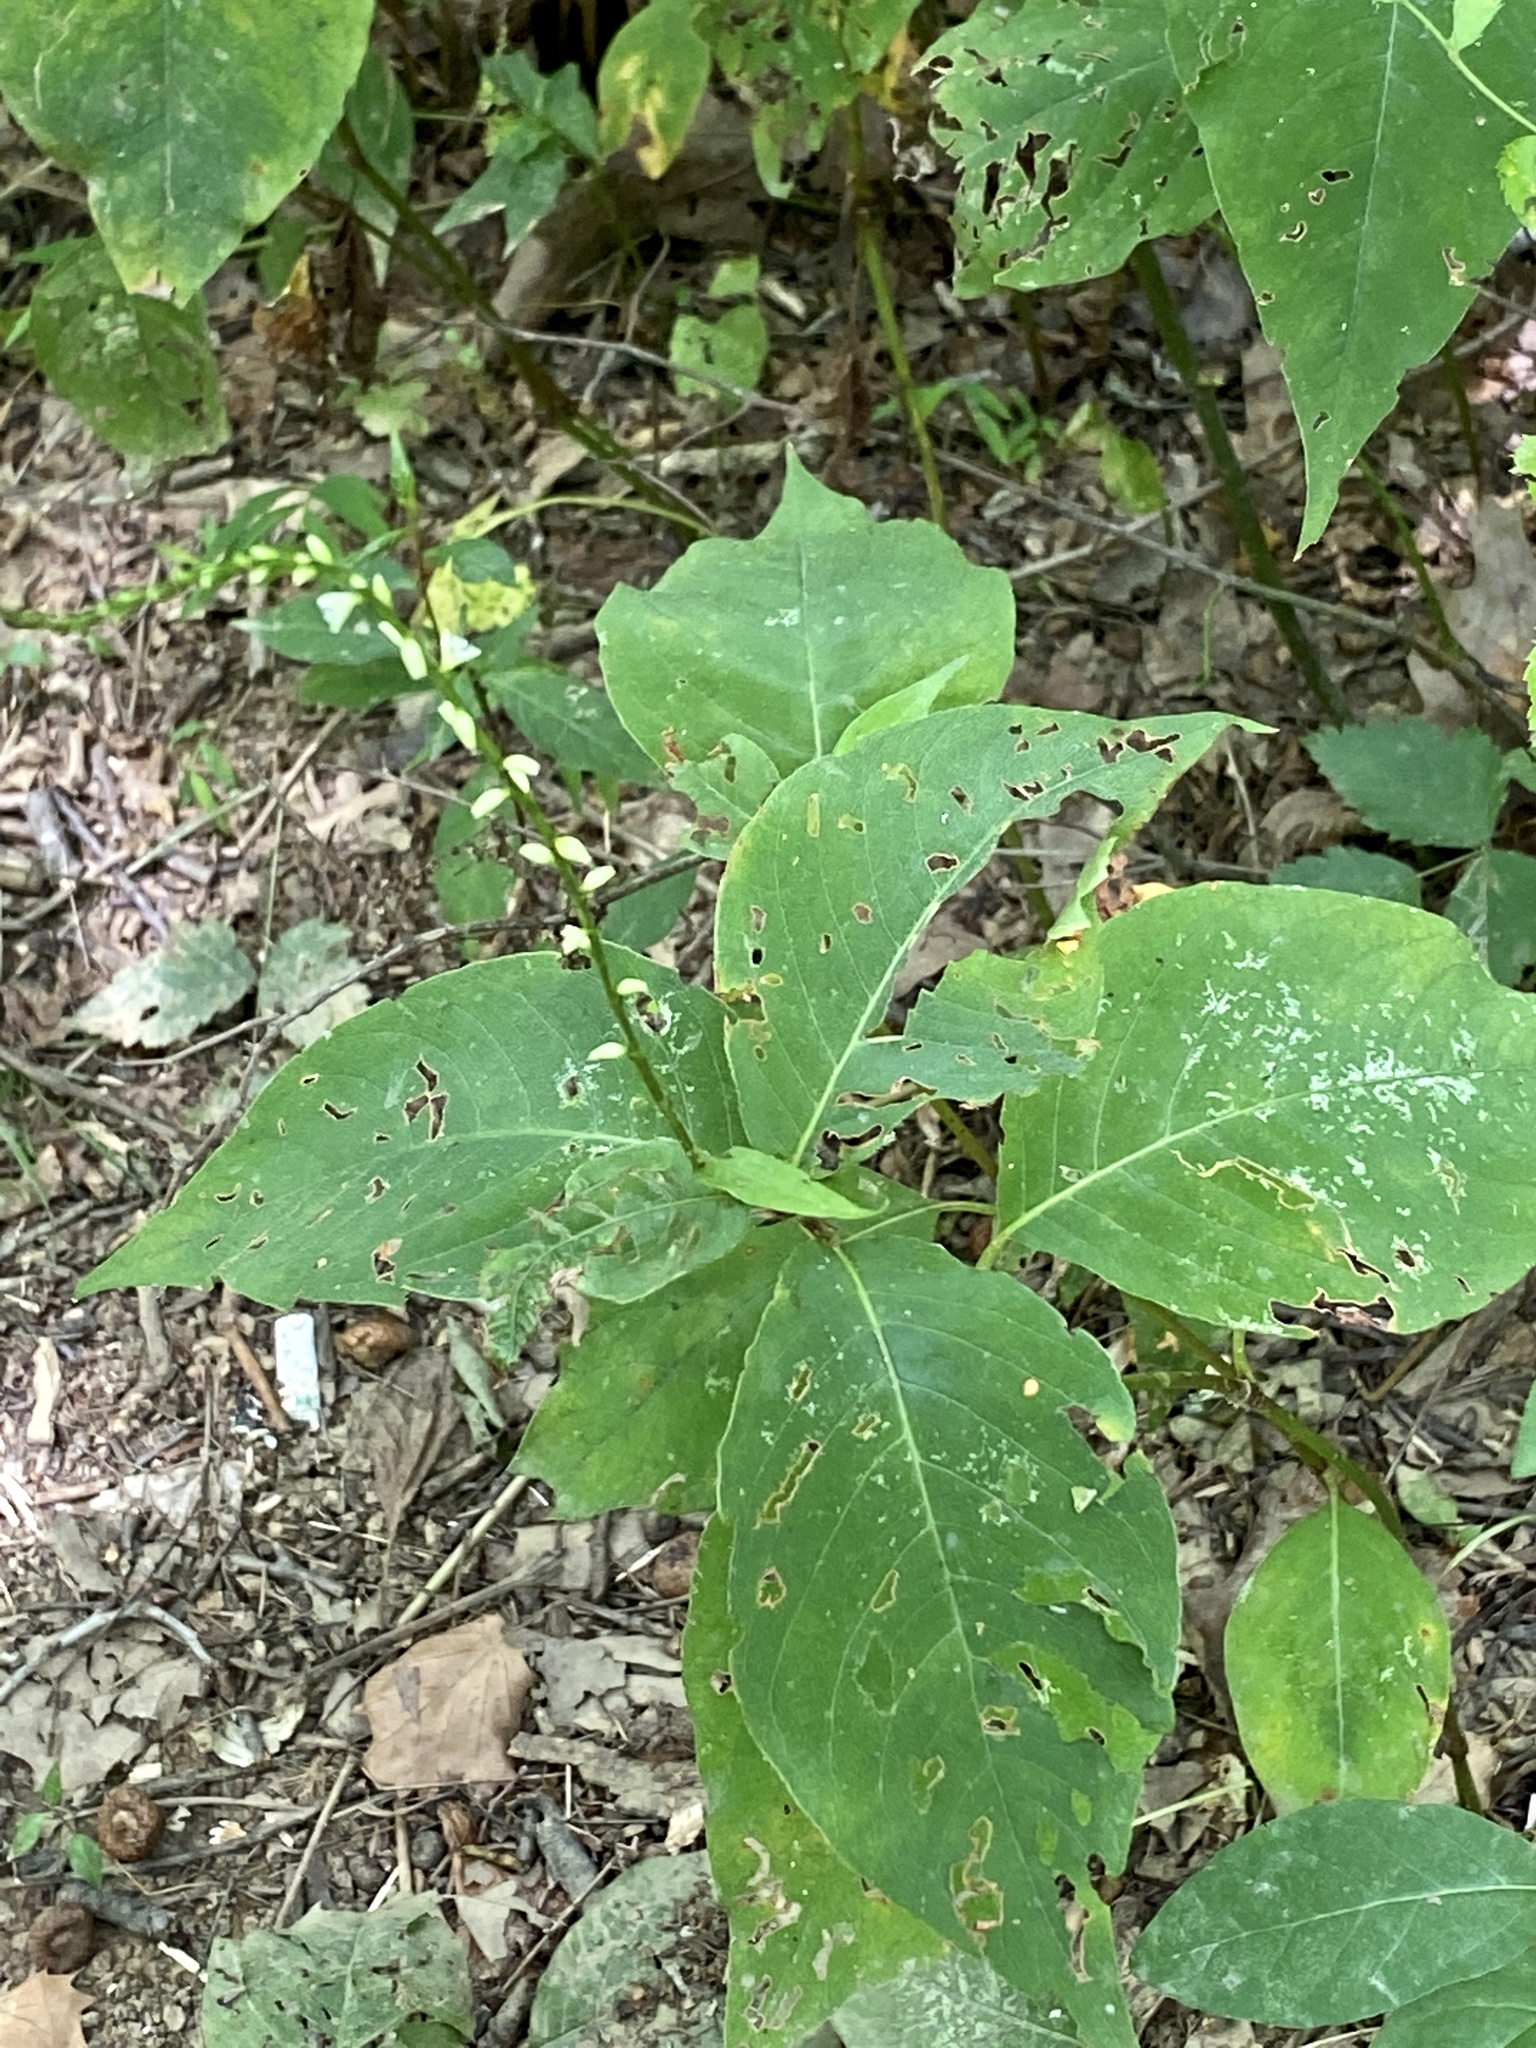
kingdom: Plantae
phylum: Tracheophyta
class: Magnoliopsida
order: Caryophyllales
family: Polygonaceae
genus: Persicaria
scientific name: Persicaria virginiana
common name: Jumpseed
